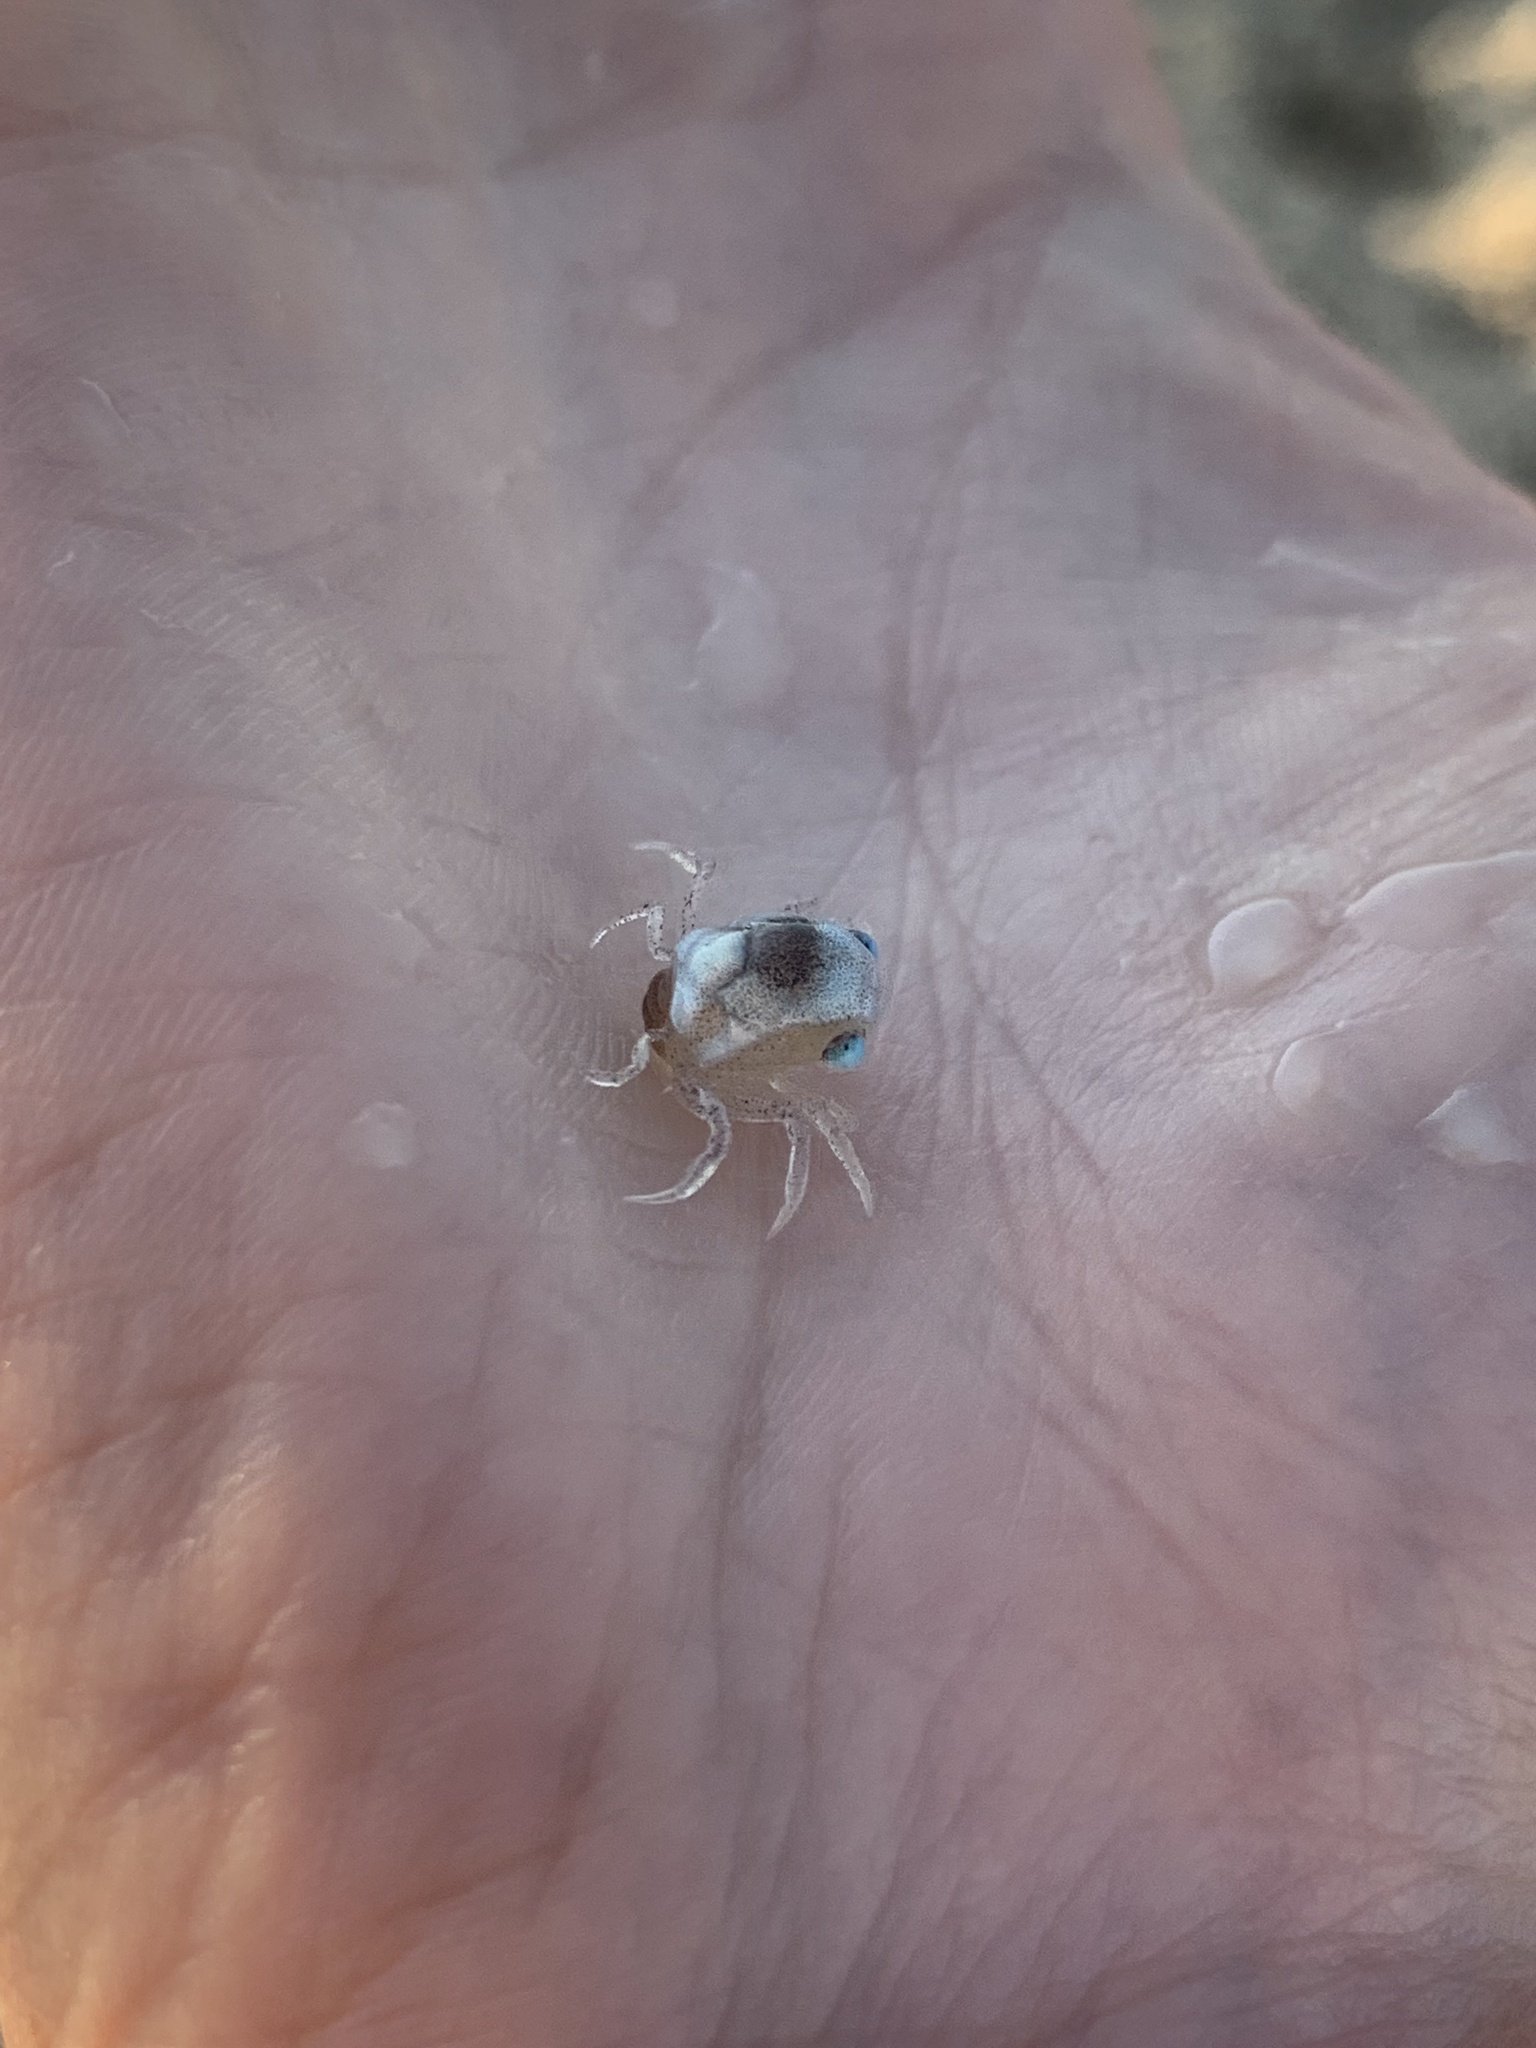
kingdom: Animalia
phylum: Arthropoda
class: Malacostraca
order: Decapoda
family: Ocypodidae
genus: Ocypode
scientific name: Ocypode quadrata
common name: Ghost crab
